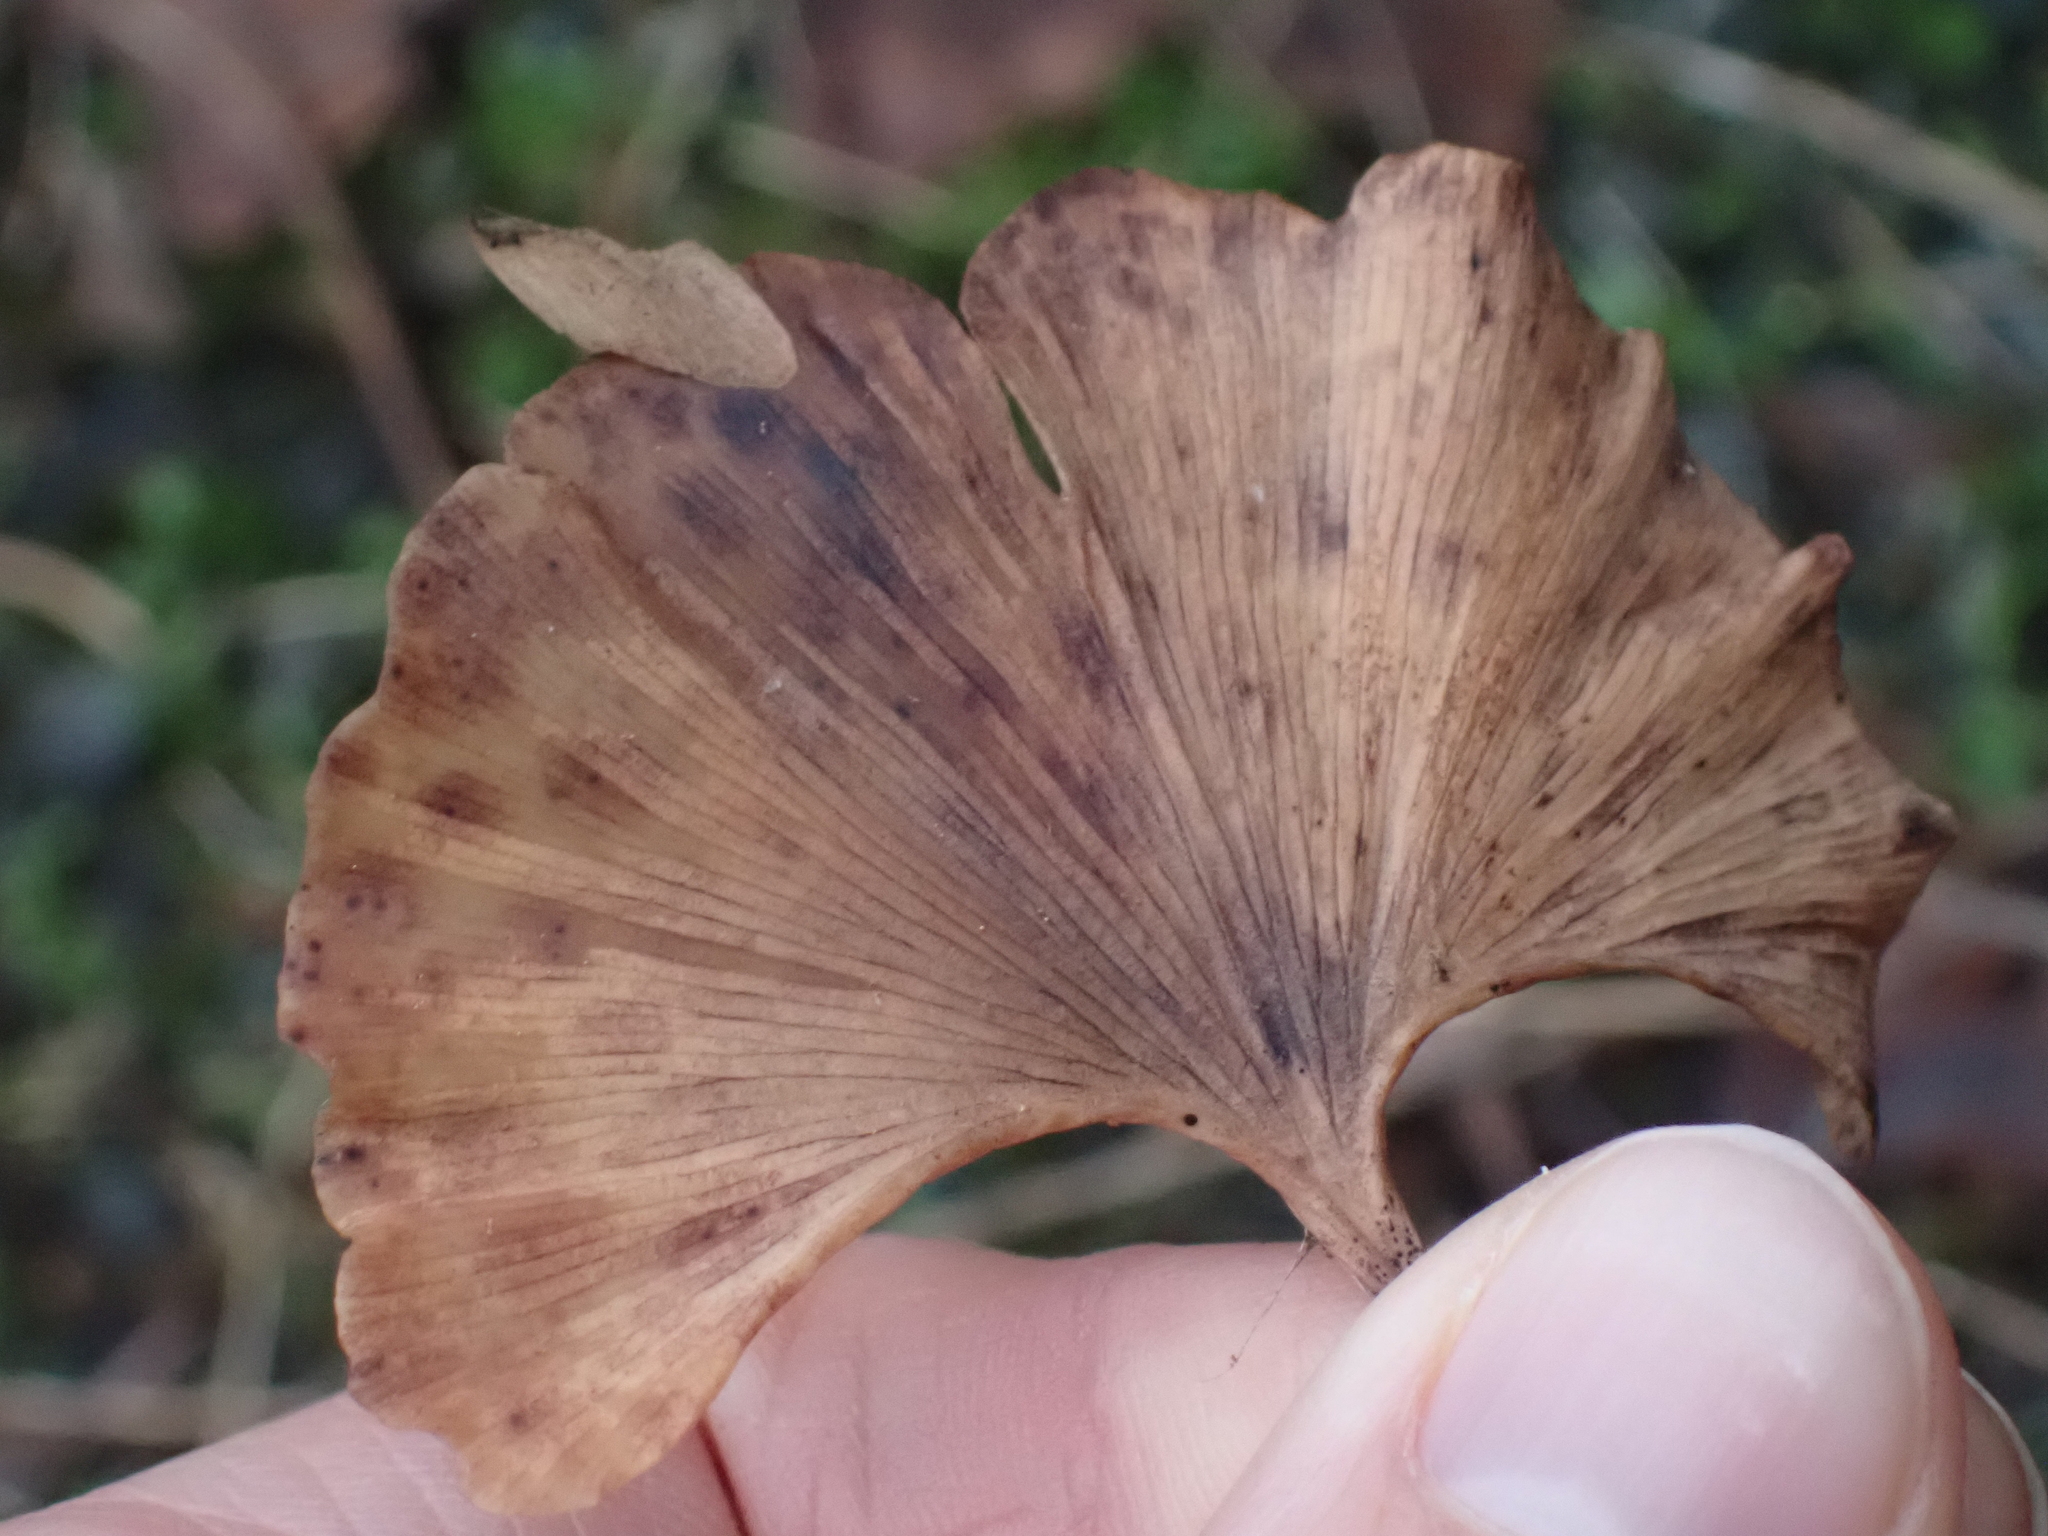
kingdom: Fungi
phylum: Basidiomycota
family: Bartheletiaceae
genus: Bartheletia
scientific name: Bartheletia paradoxa
